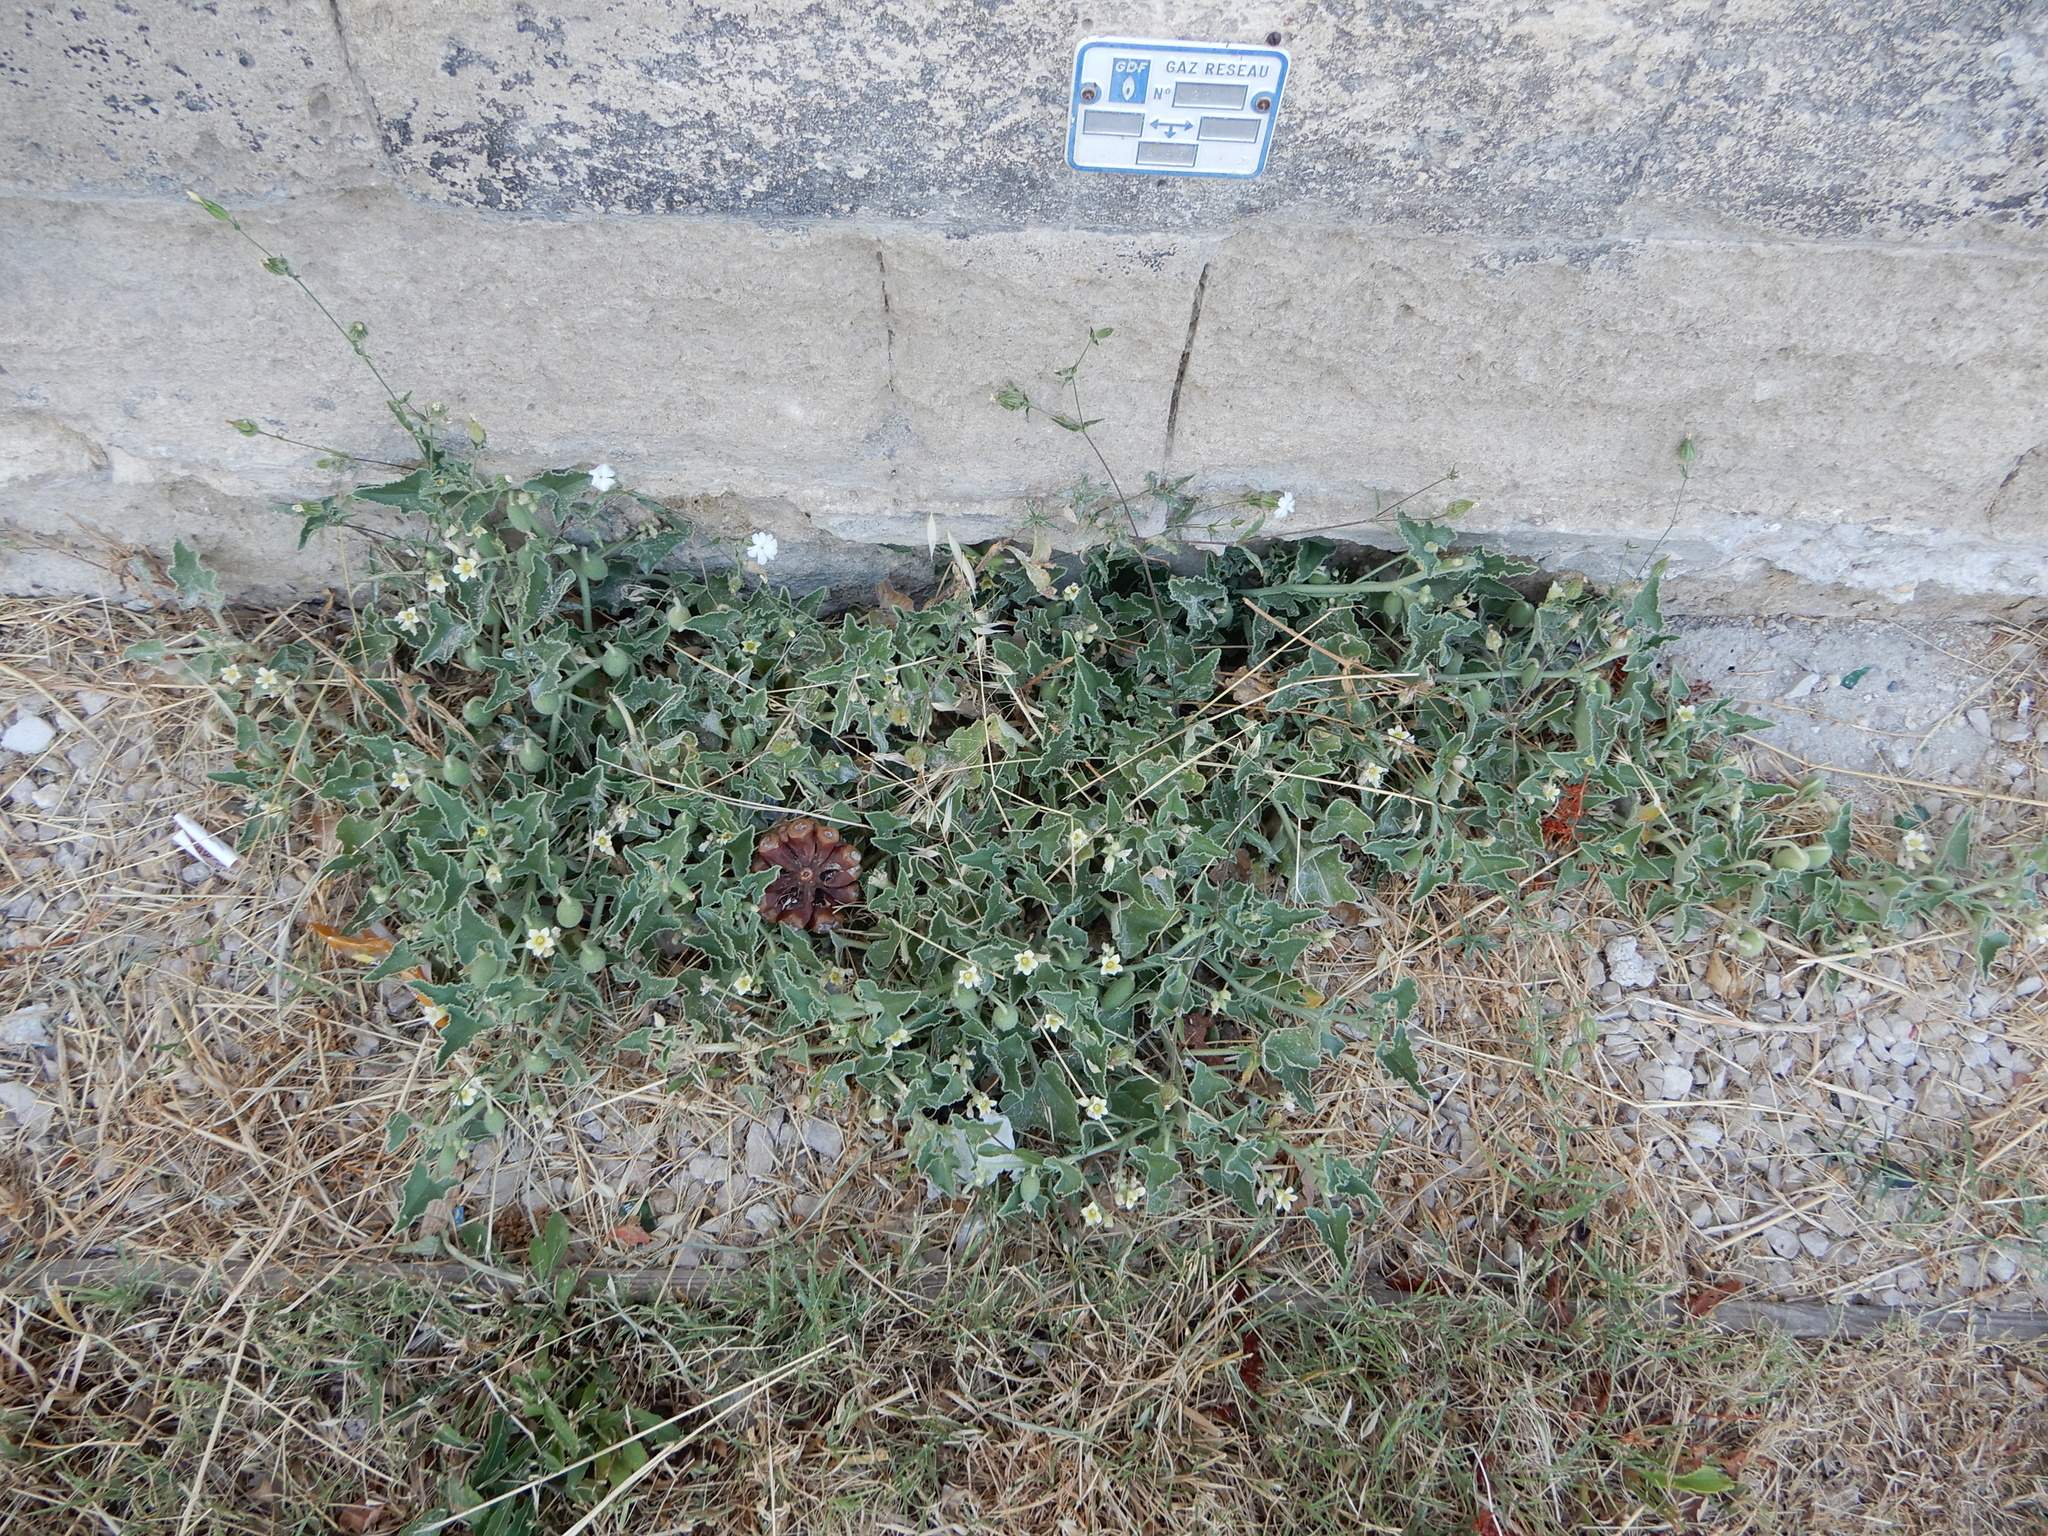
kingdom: Plantae
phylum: Tracheophyta
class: Magnoliopsida
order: Cucurbitales
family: Cucurbitaceae
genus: Ecballium
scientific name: Ecballium elaterium
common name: Squirting cucumber
